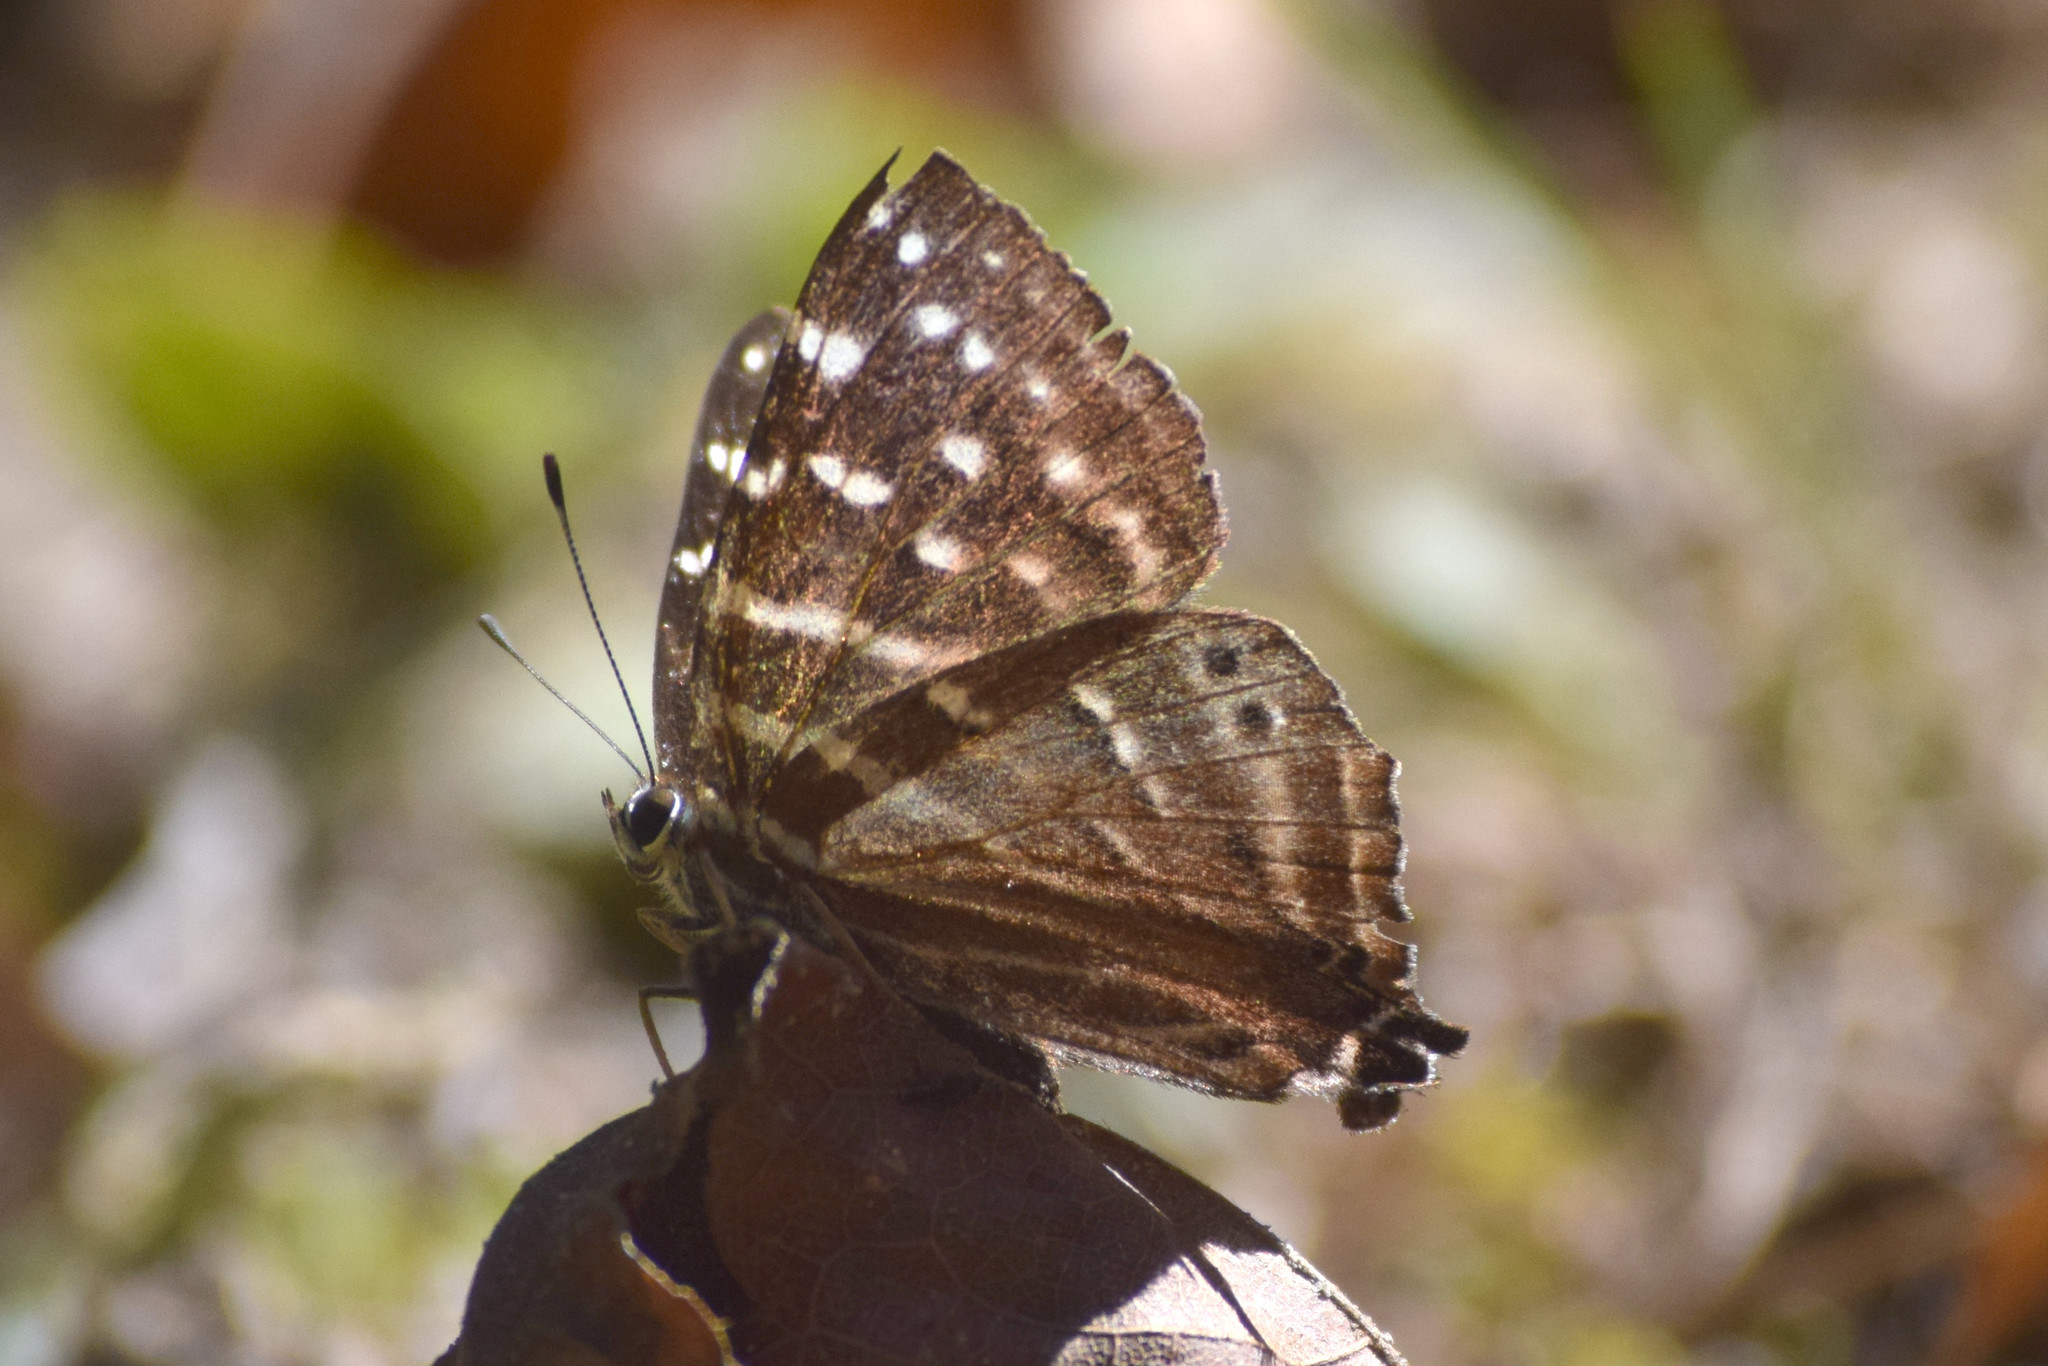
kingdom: Animalia
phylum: Arthropoda
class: Insecta
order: Lepidoptera
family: Lycaenidae
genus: Dodona
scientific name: Dodona dipoea
